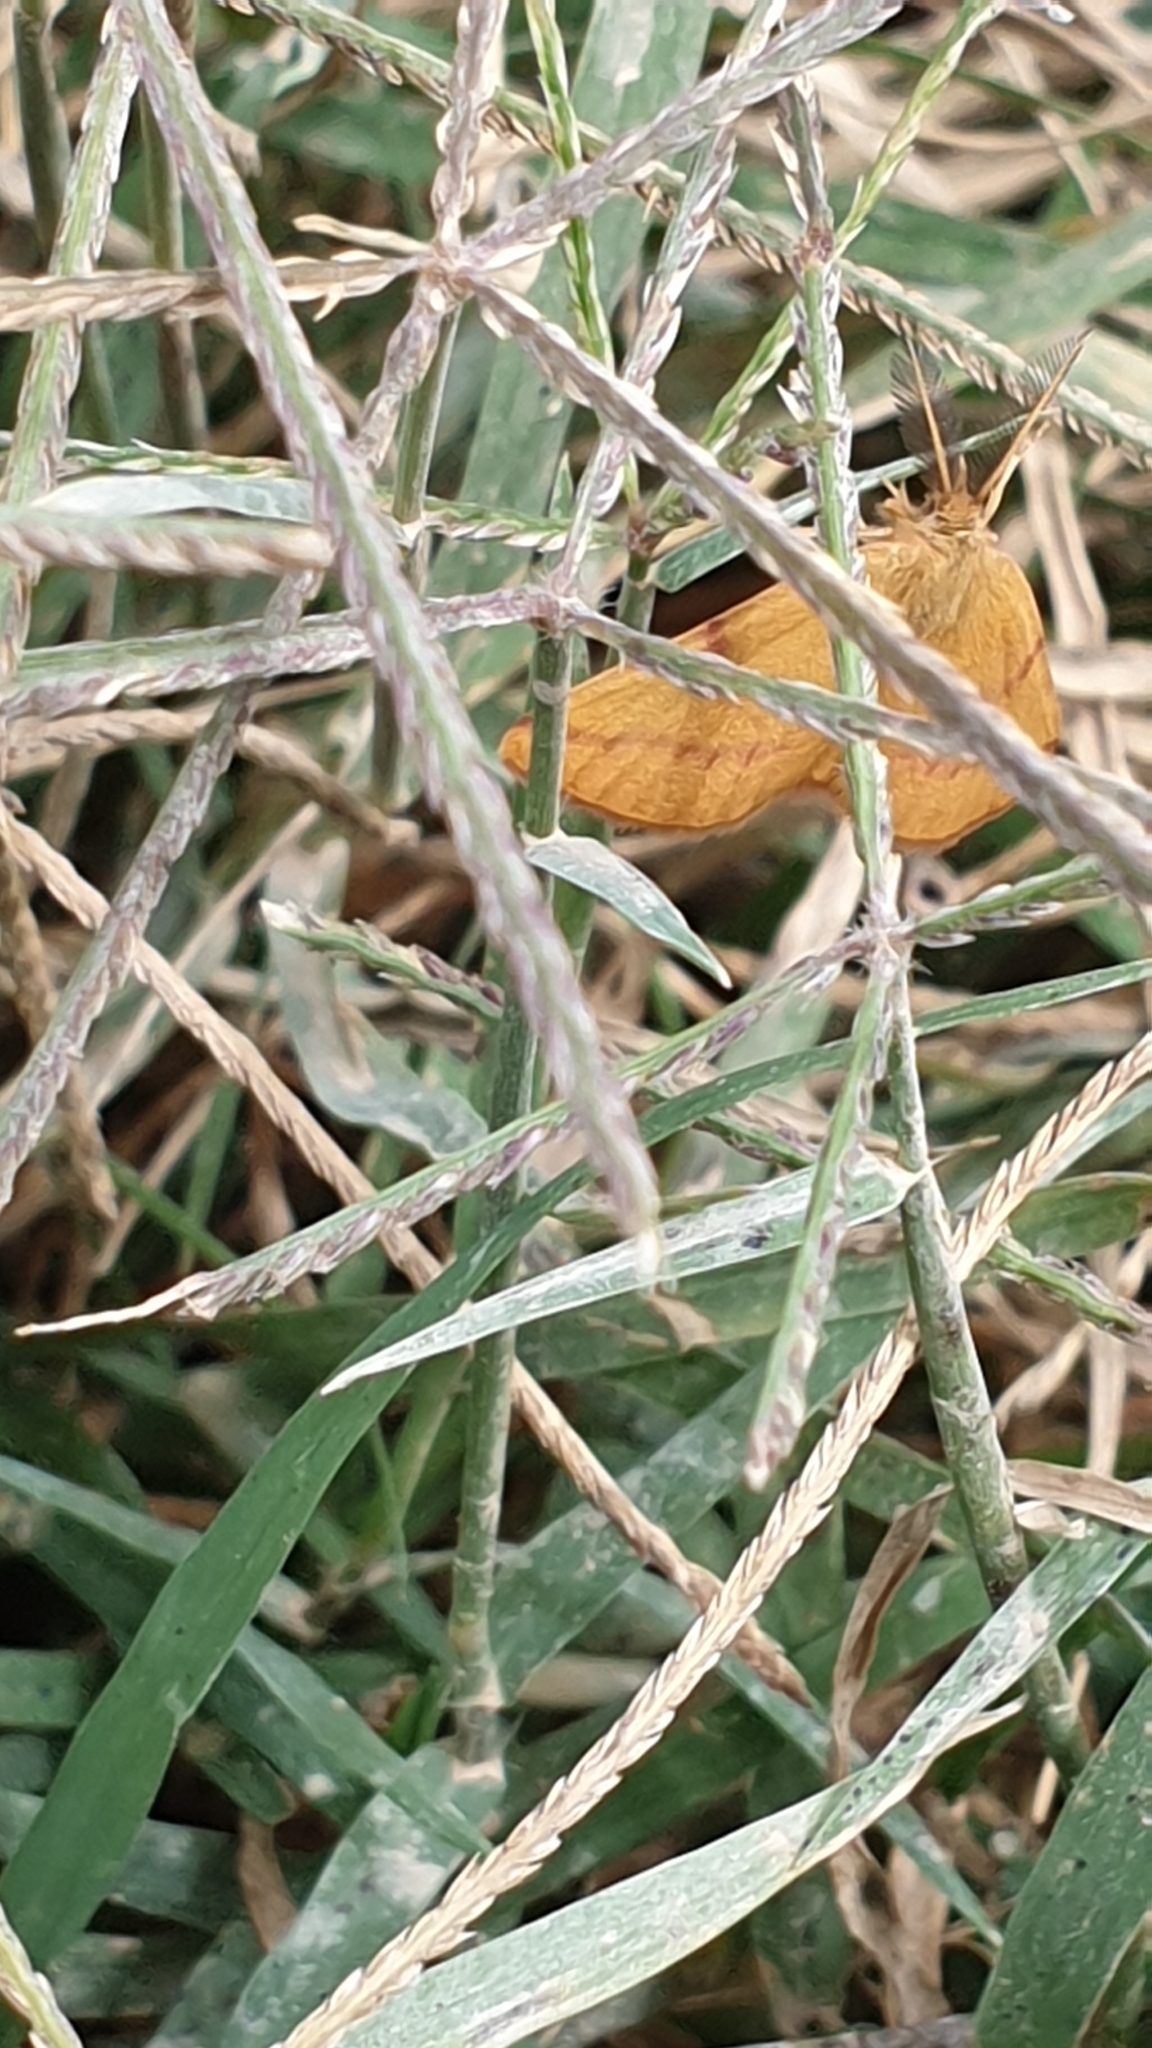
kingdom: Animalia
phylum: Arthropoda
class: Insecta
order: Lepidoptera
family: Geometridae
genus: Lythria
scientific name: Lythria purpuraria
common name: Purple-barred yellow
